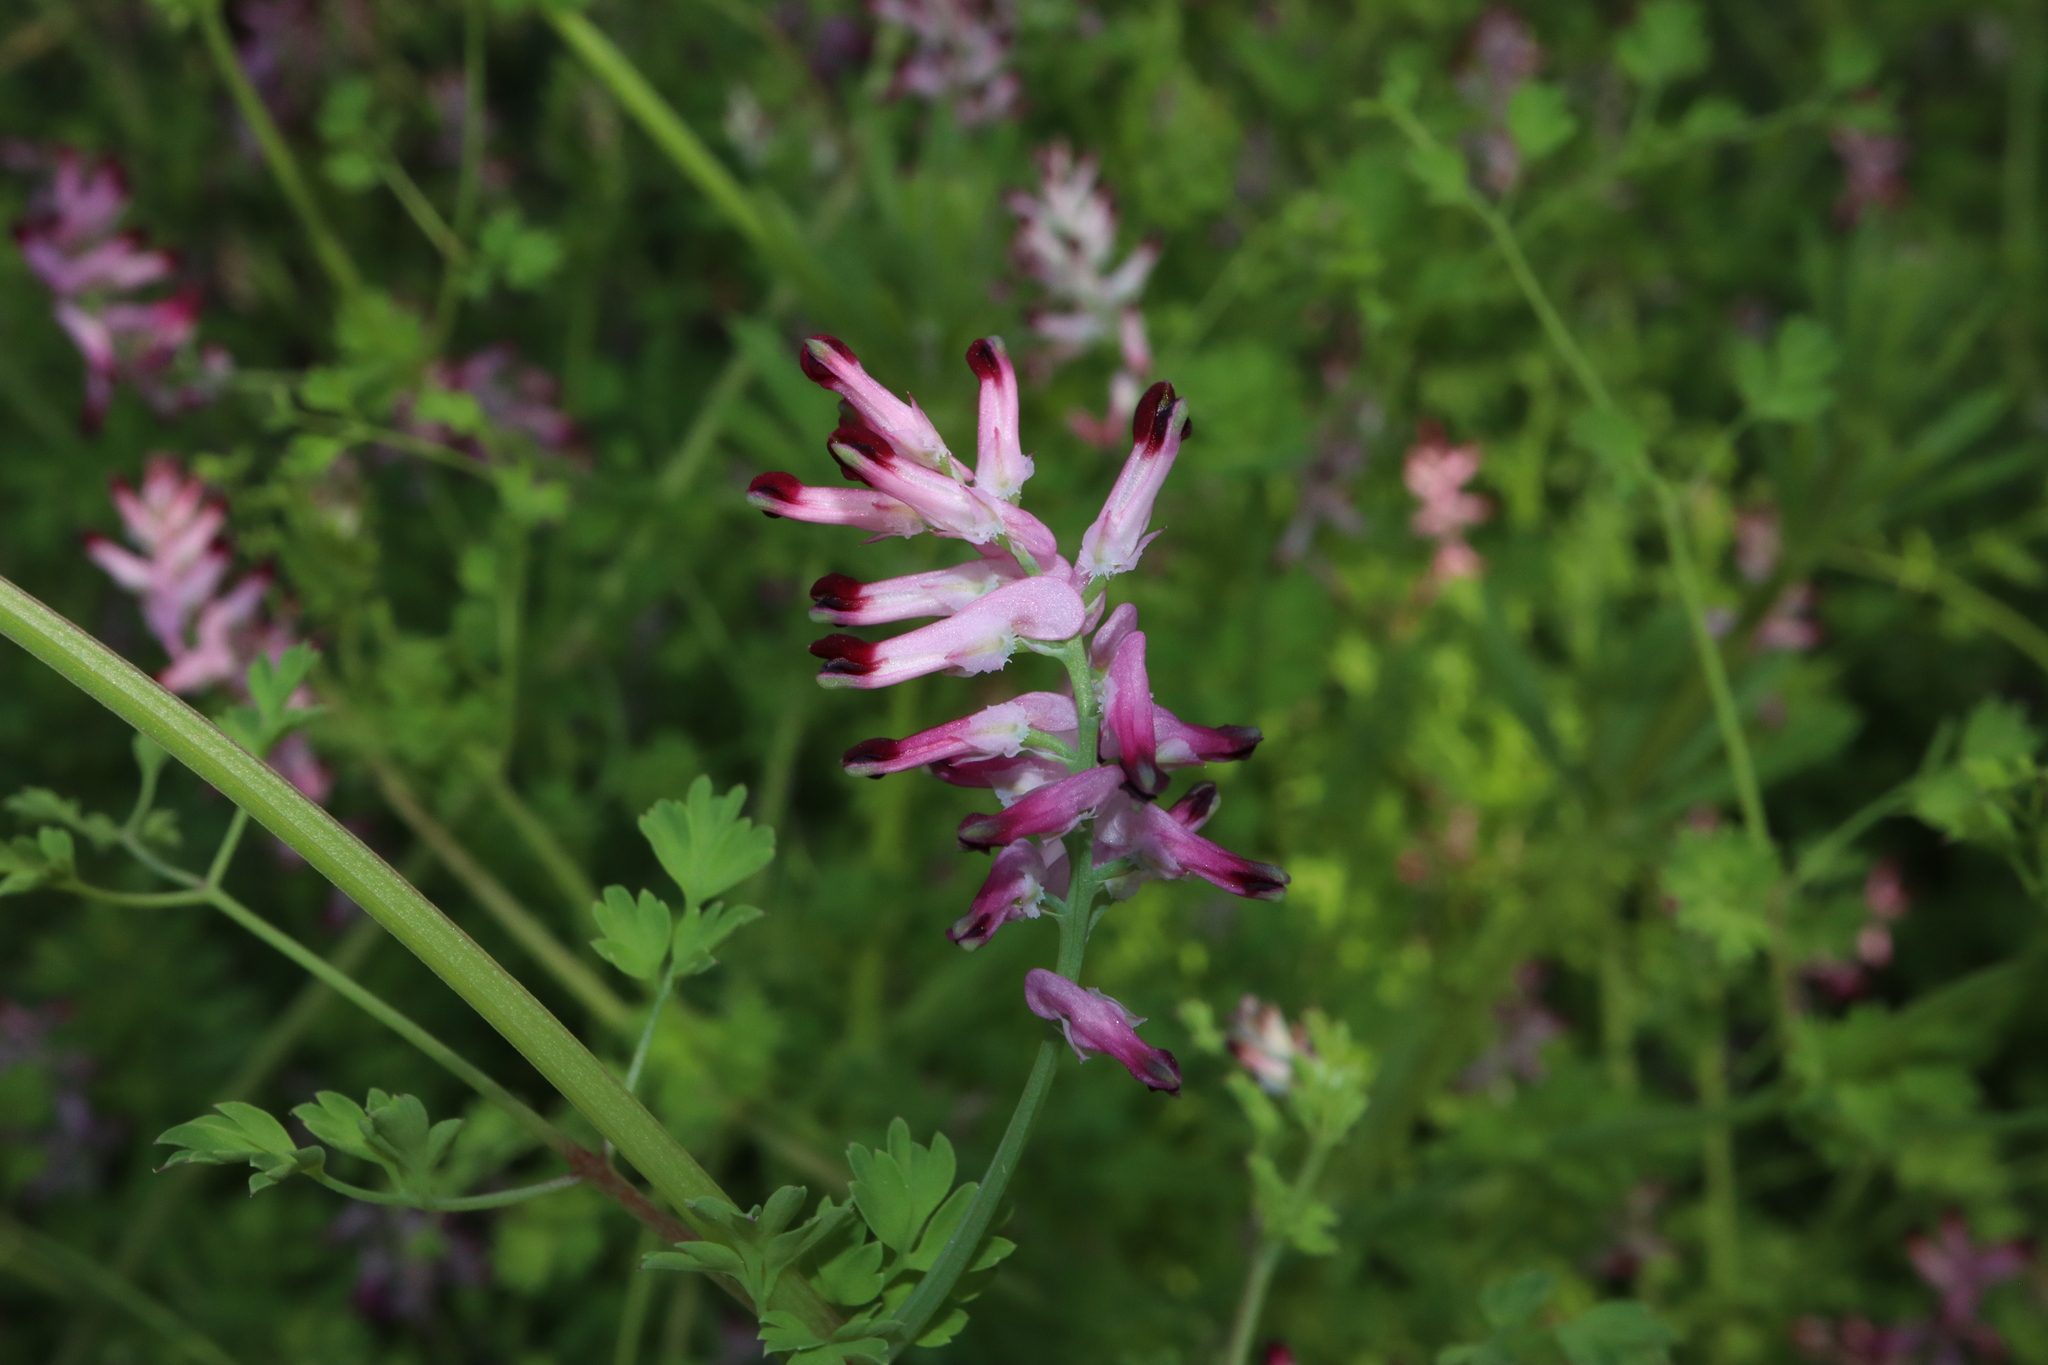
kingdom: Plantae
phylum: Tracheophyta
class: Magnoliopsida
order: Ranunculales
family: Papaveraceae
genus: Fumaria
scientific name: Fumaria muralis
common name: Common ramping-fumitory
